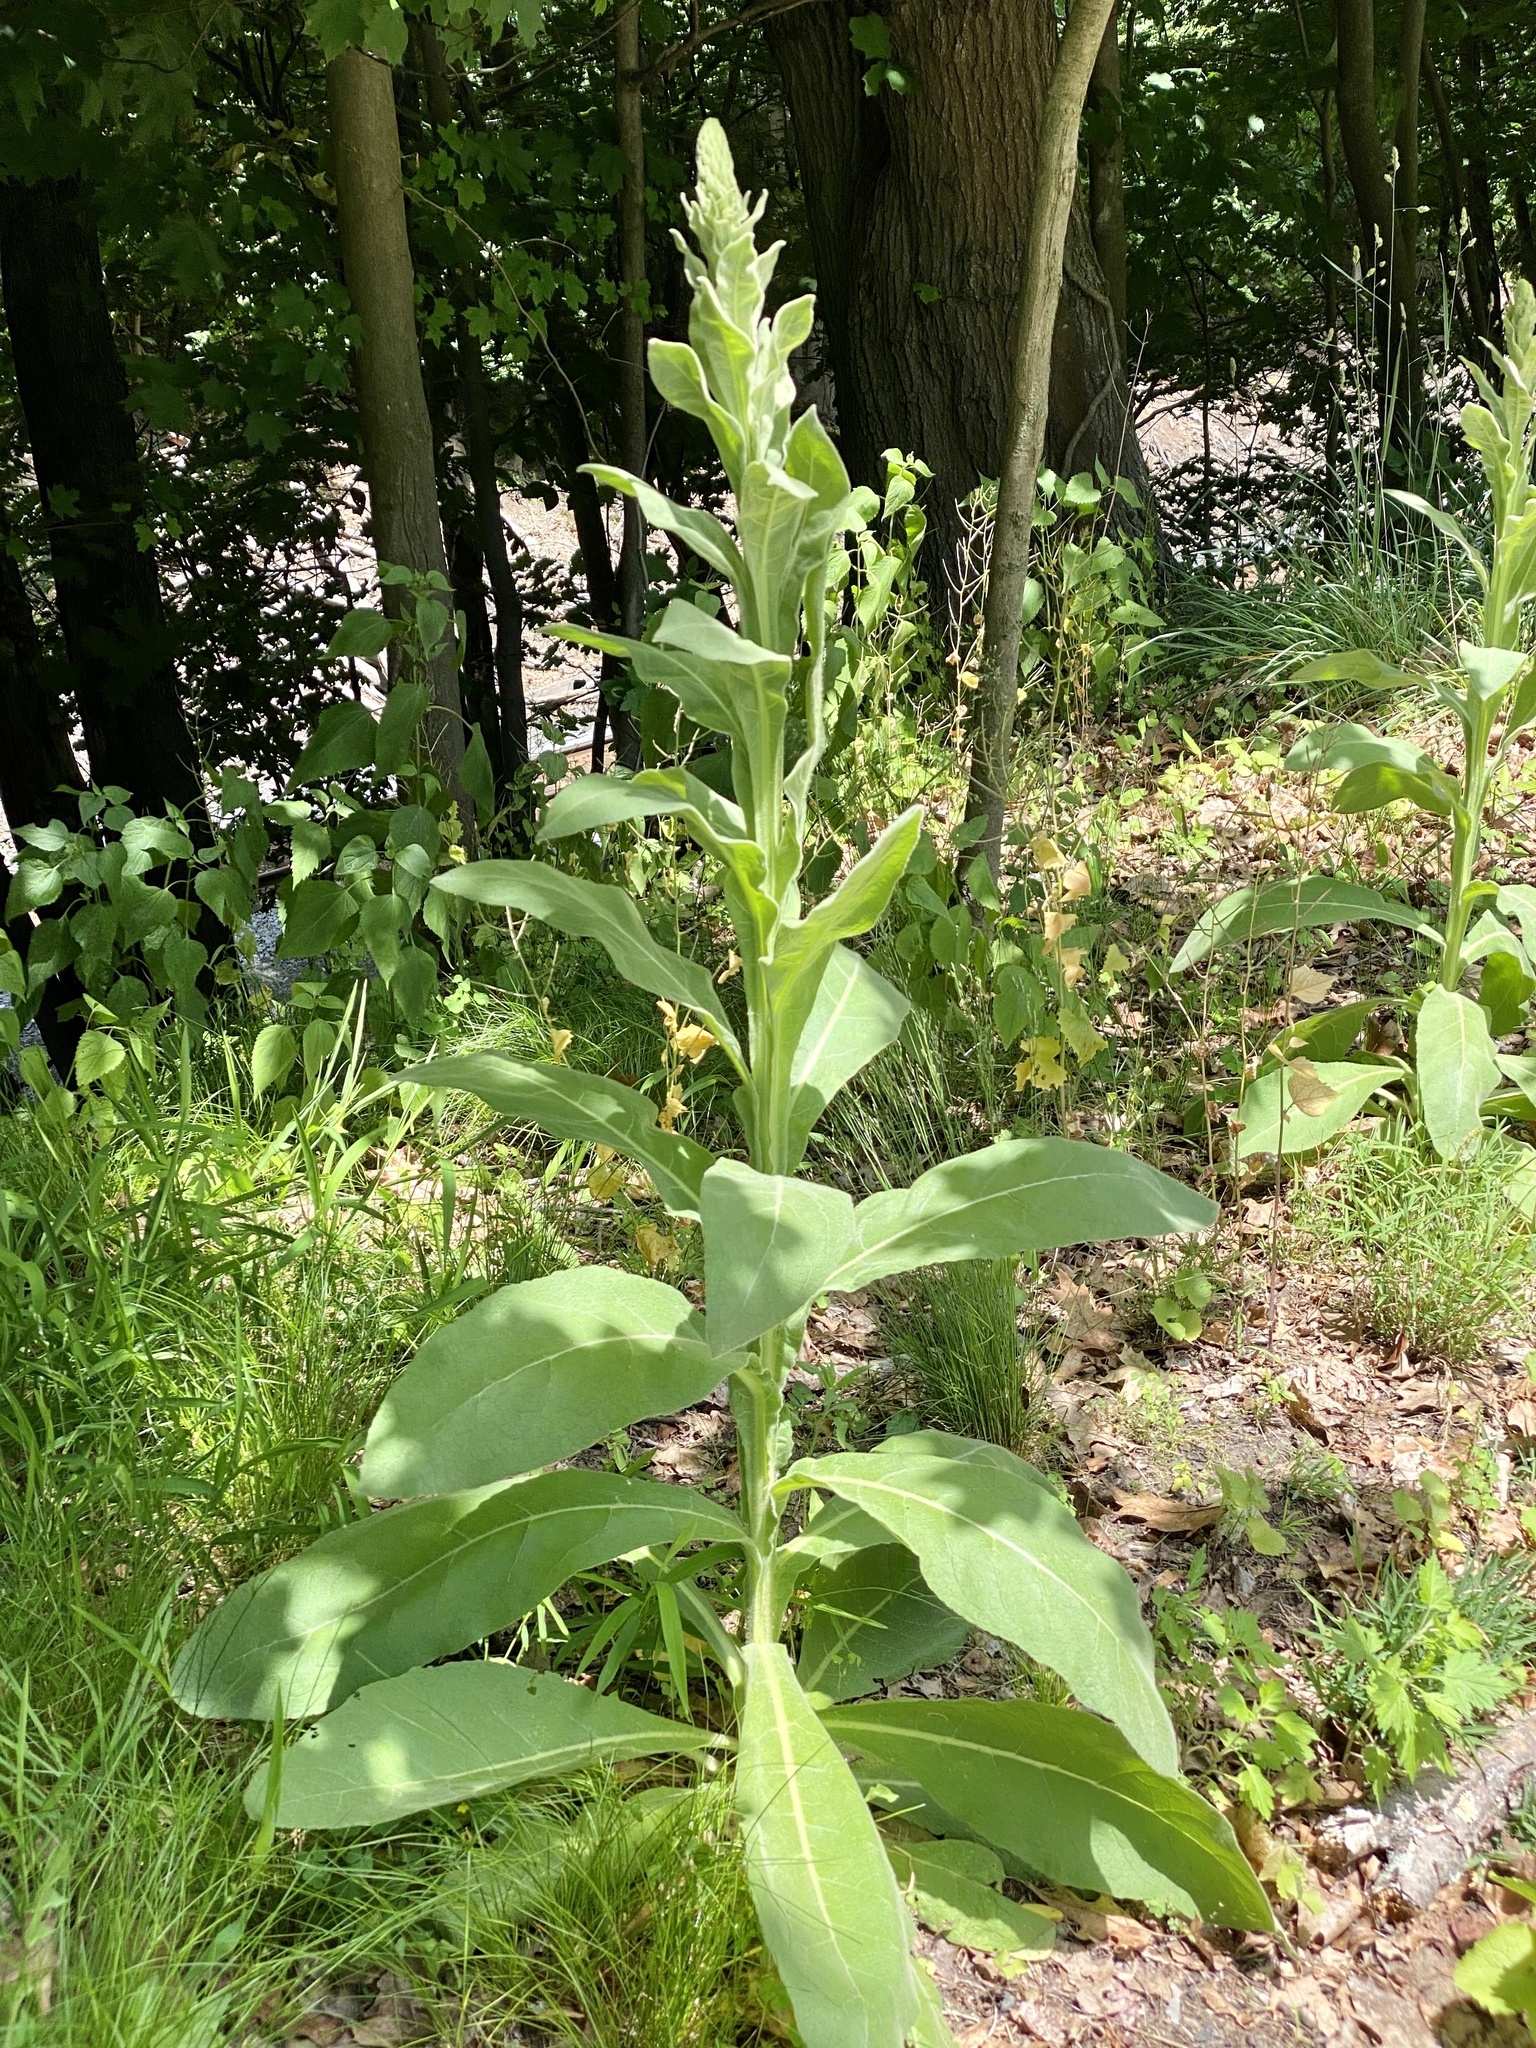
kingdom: Plantae
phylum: Tracheophyta
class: Magnoliopsida
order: Lamiales
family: Scrophulariaceae
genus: Verbascum
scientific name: Verbascum thapsus
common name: Common mullein
